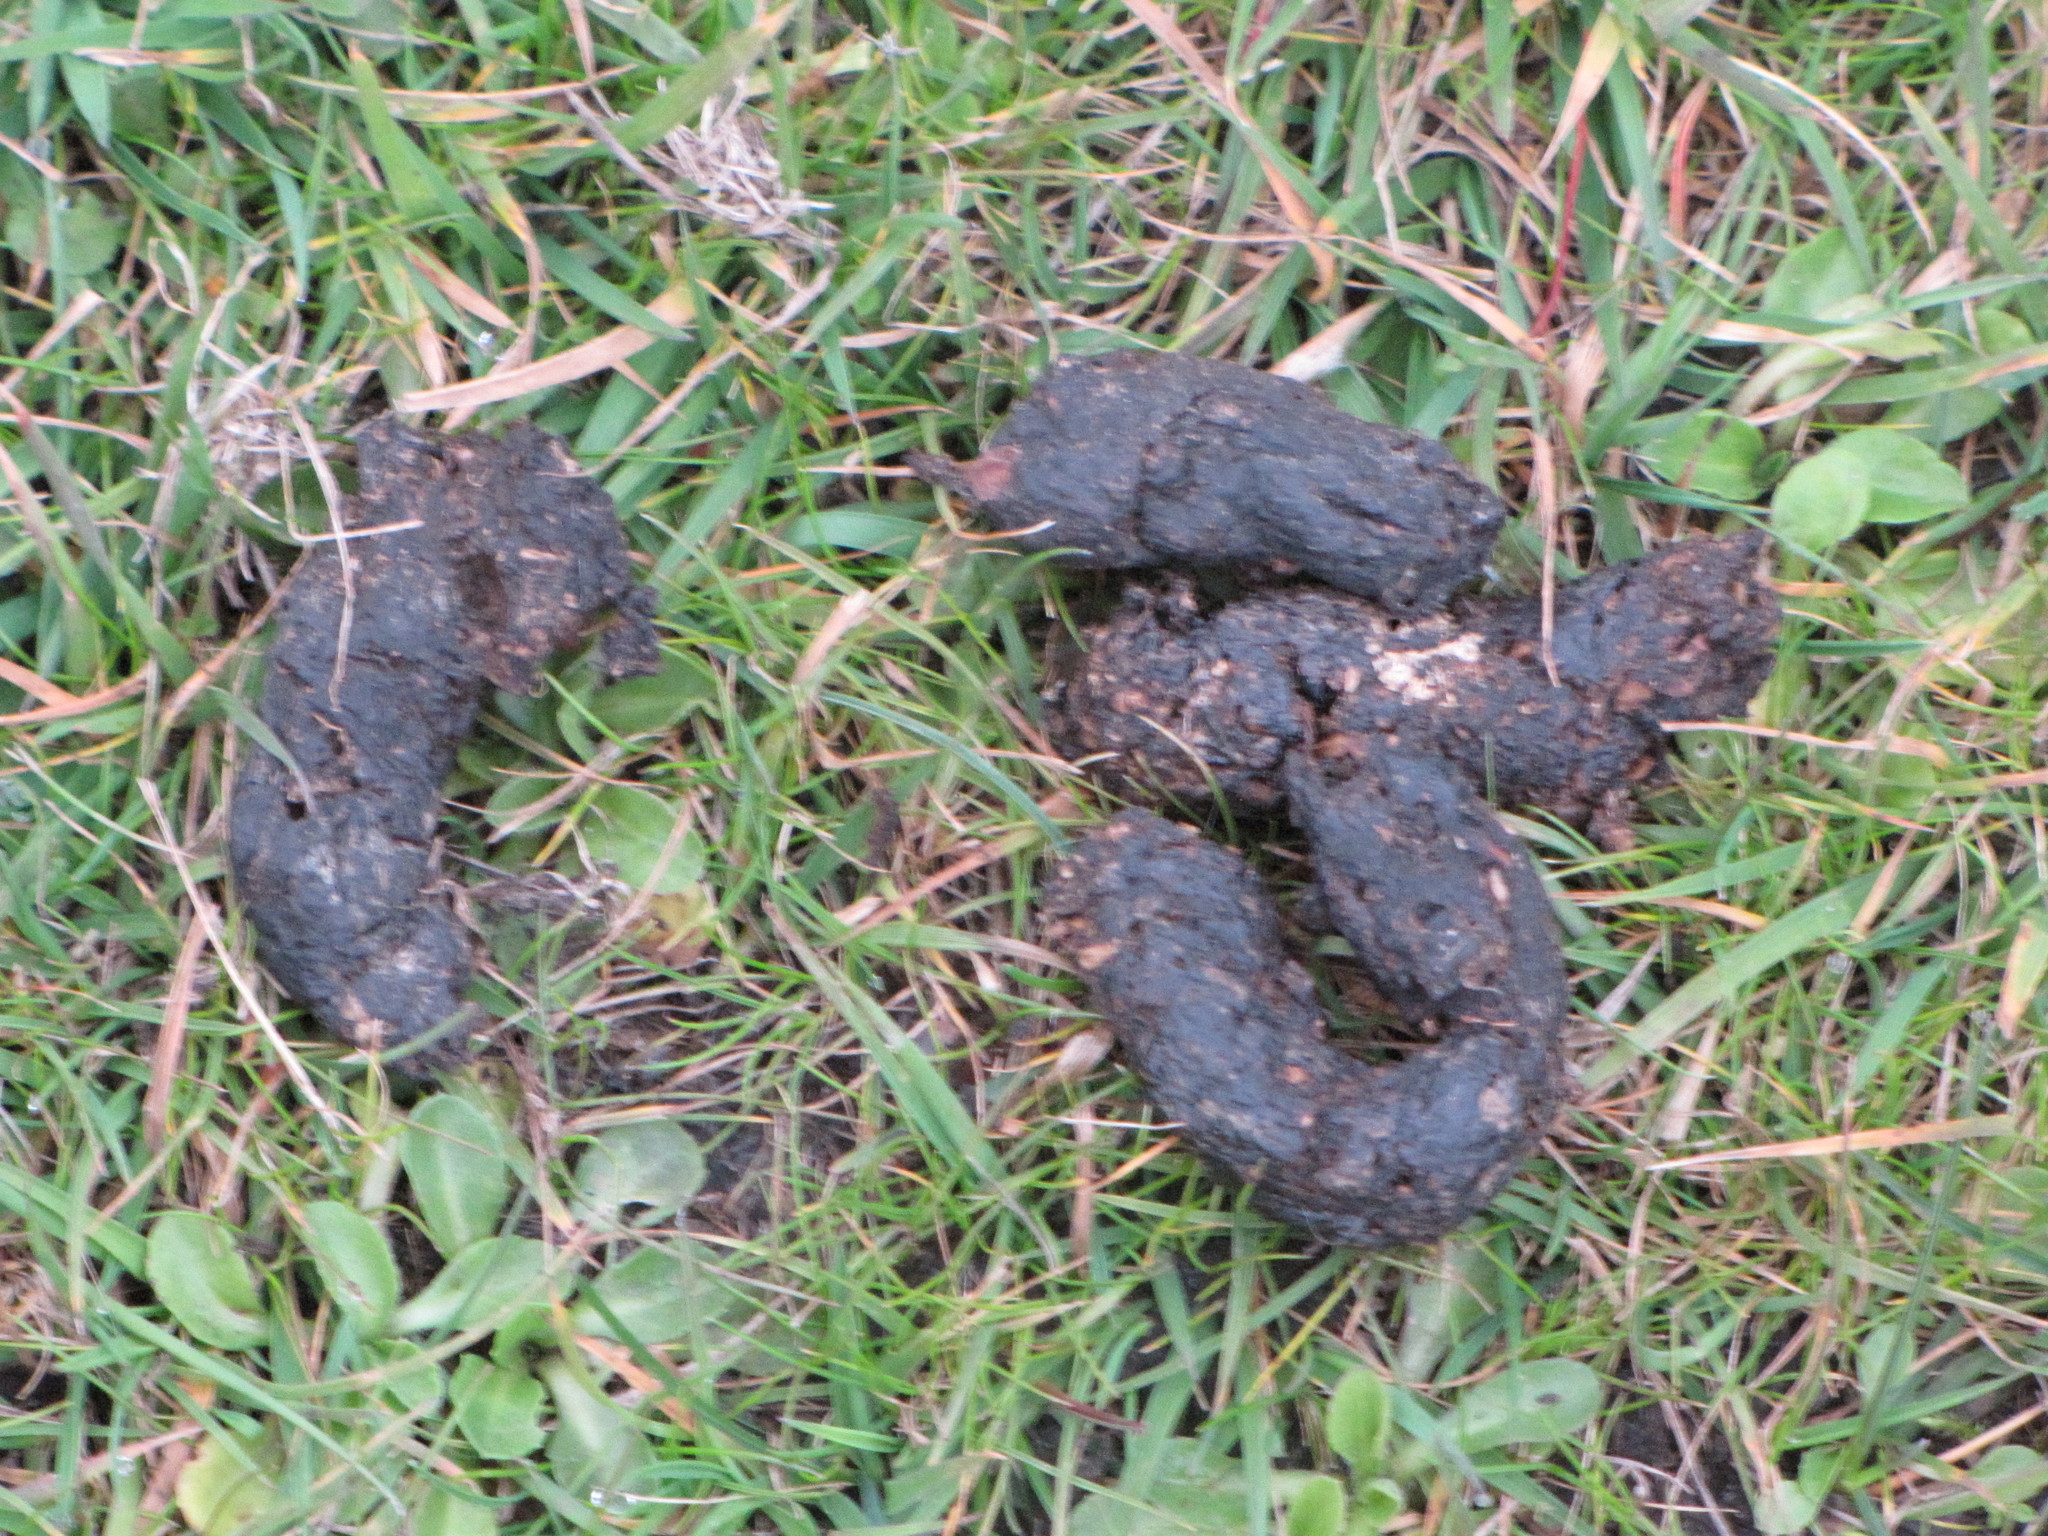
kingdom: Animalia
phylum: Chordata
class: Aves
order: Anseriformes
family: Anatidae
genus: Branta
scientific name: Branta canadensis
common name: Canada goose
